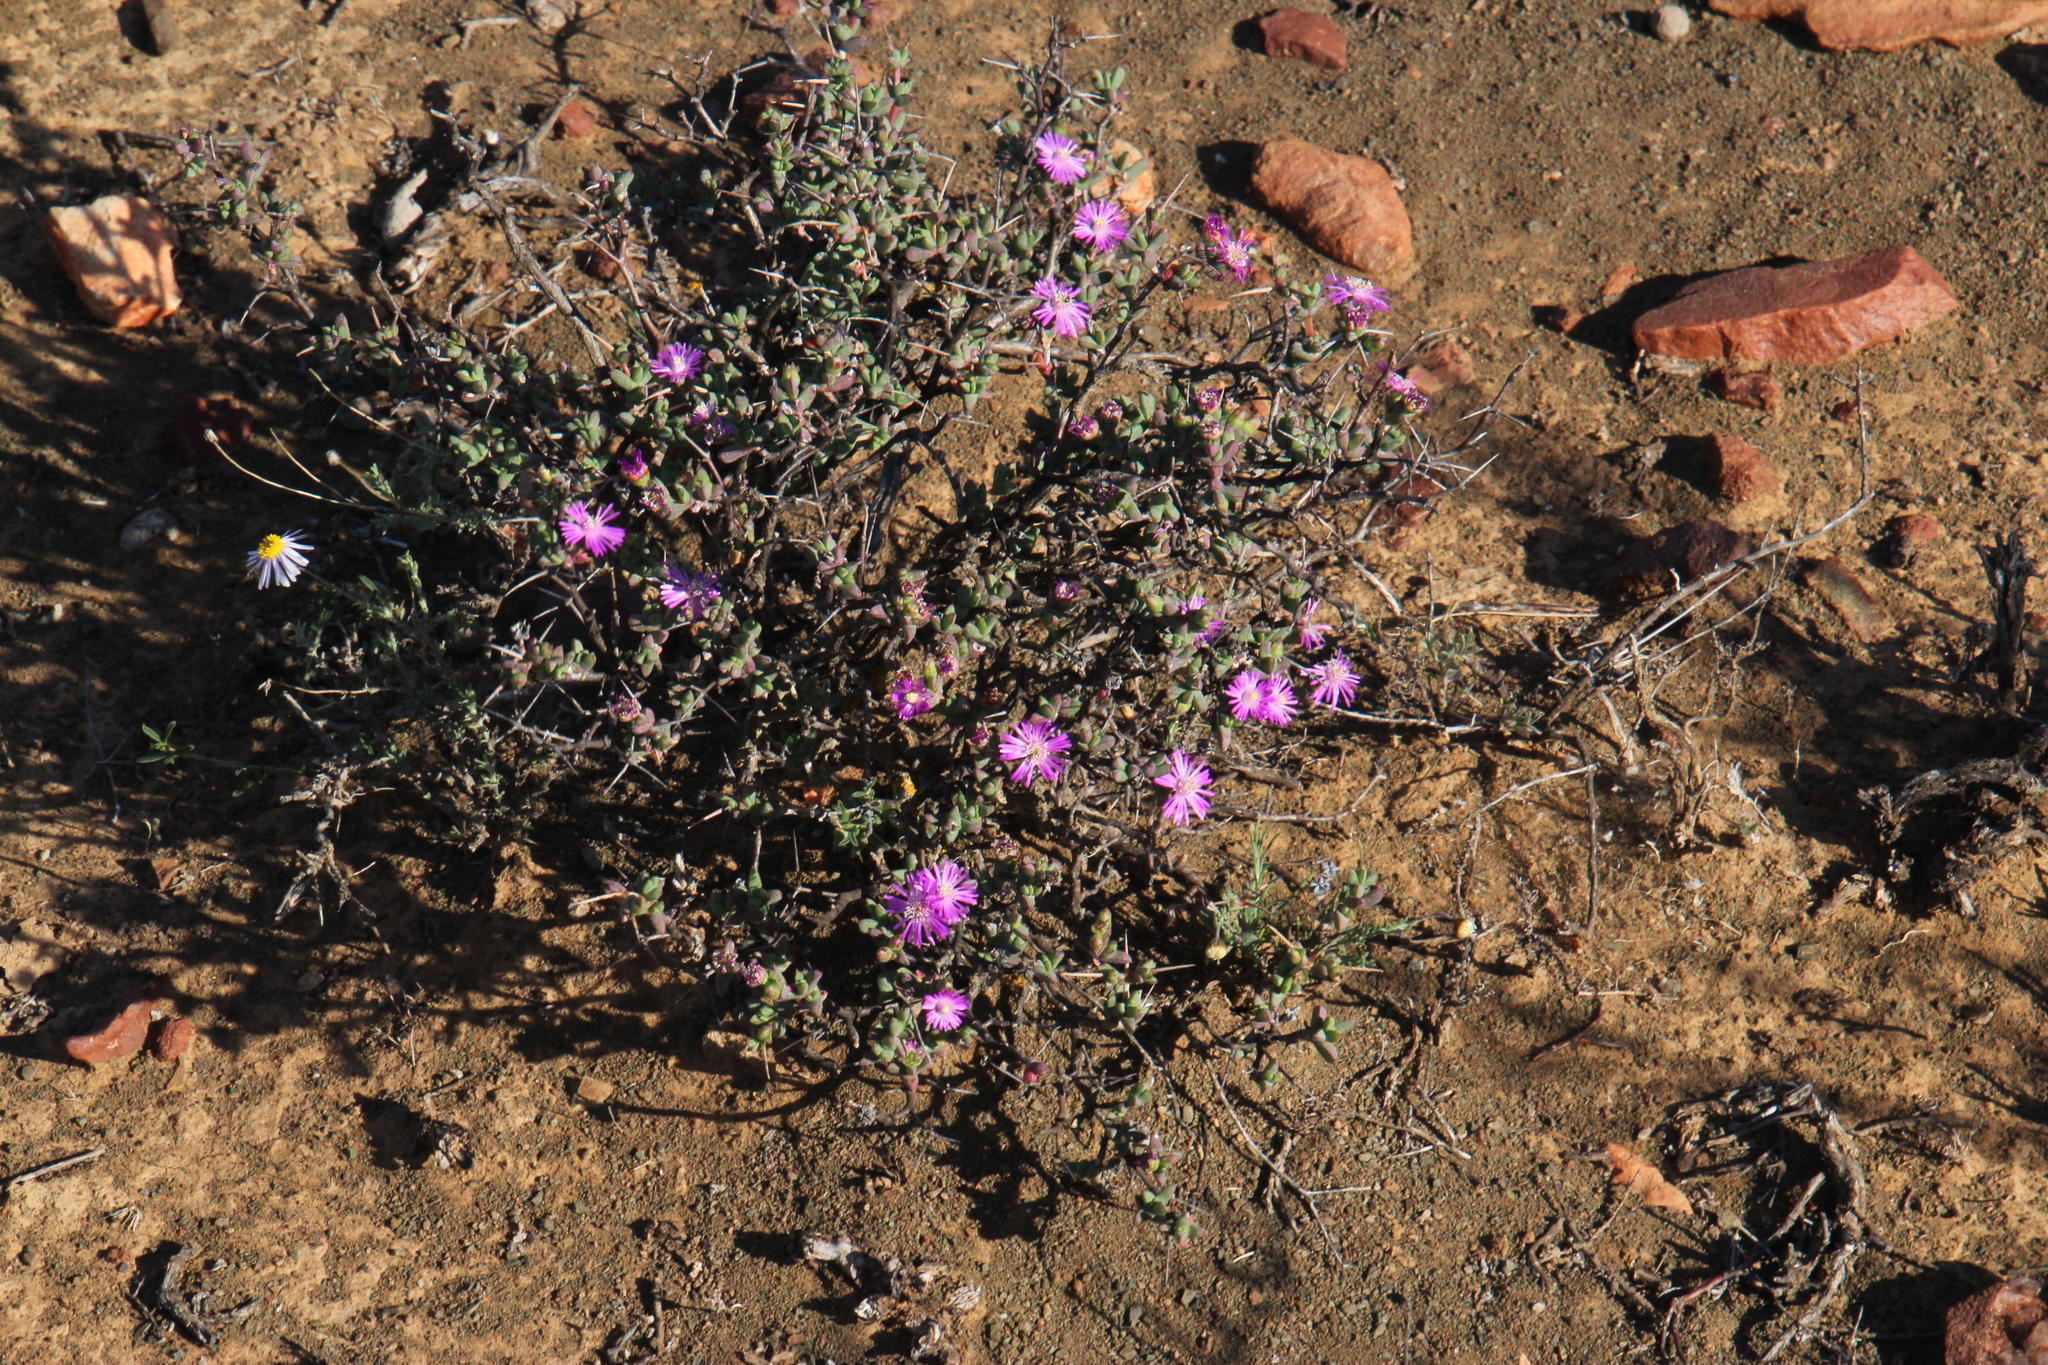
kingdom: Plantae
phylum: Tracheophyta
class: Magnoliopsida
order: Caryophyllales
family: Aizoaceae
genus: Ruschia
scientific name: Ruschia intricata
